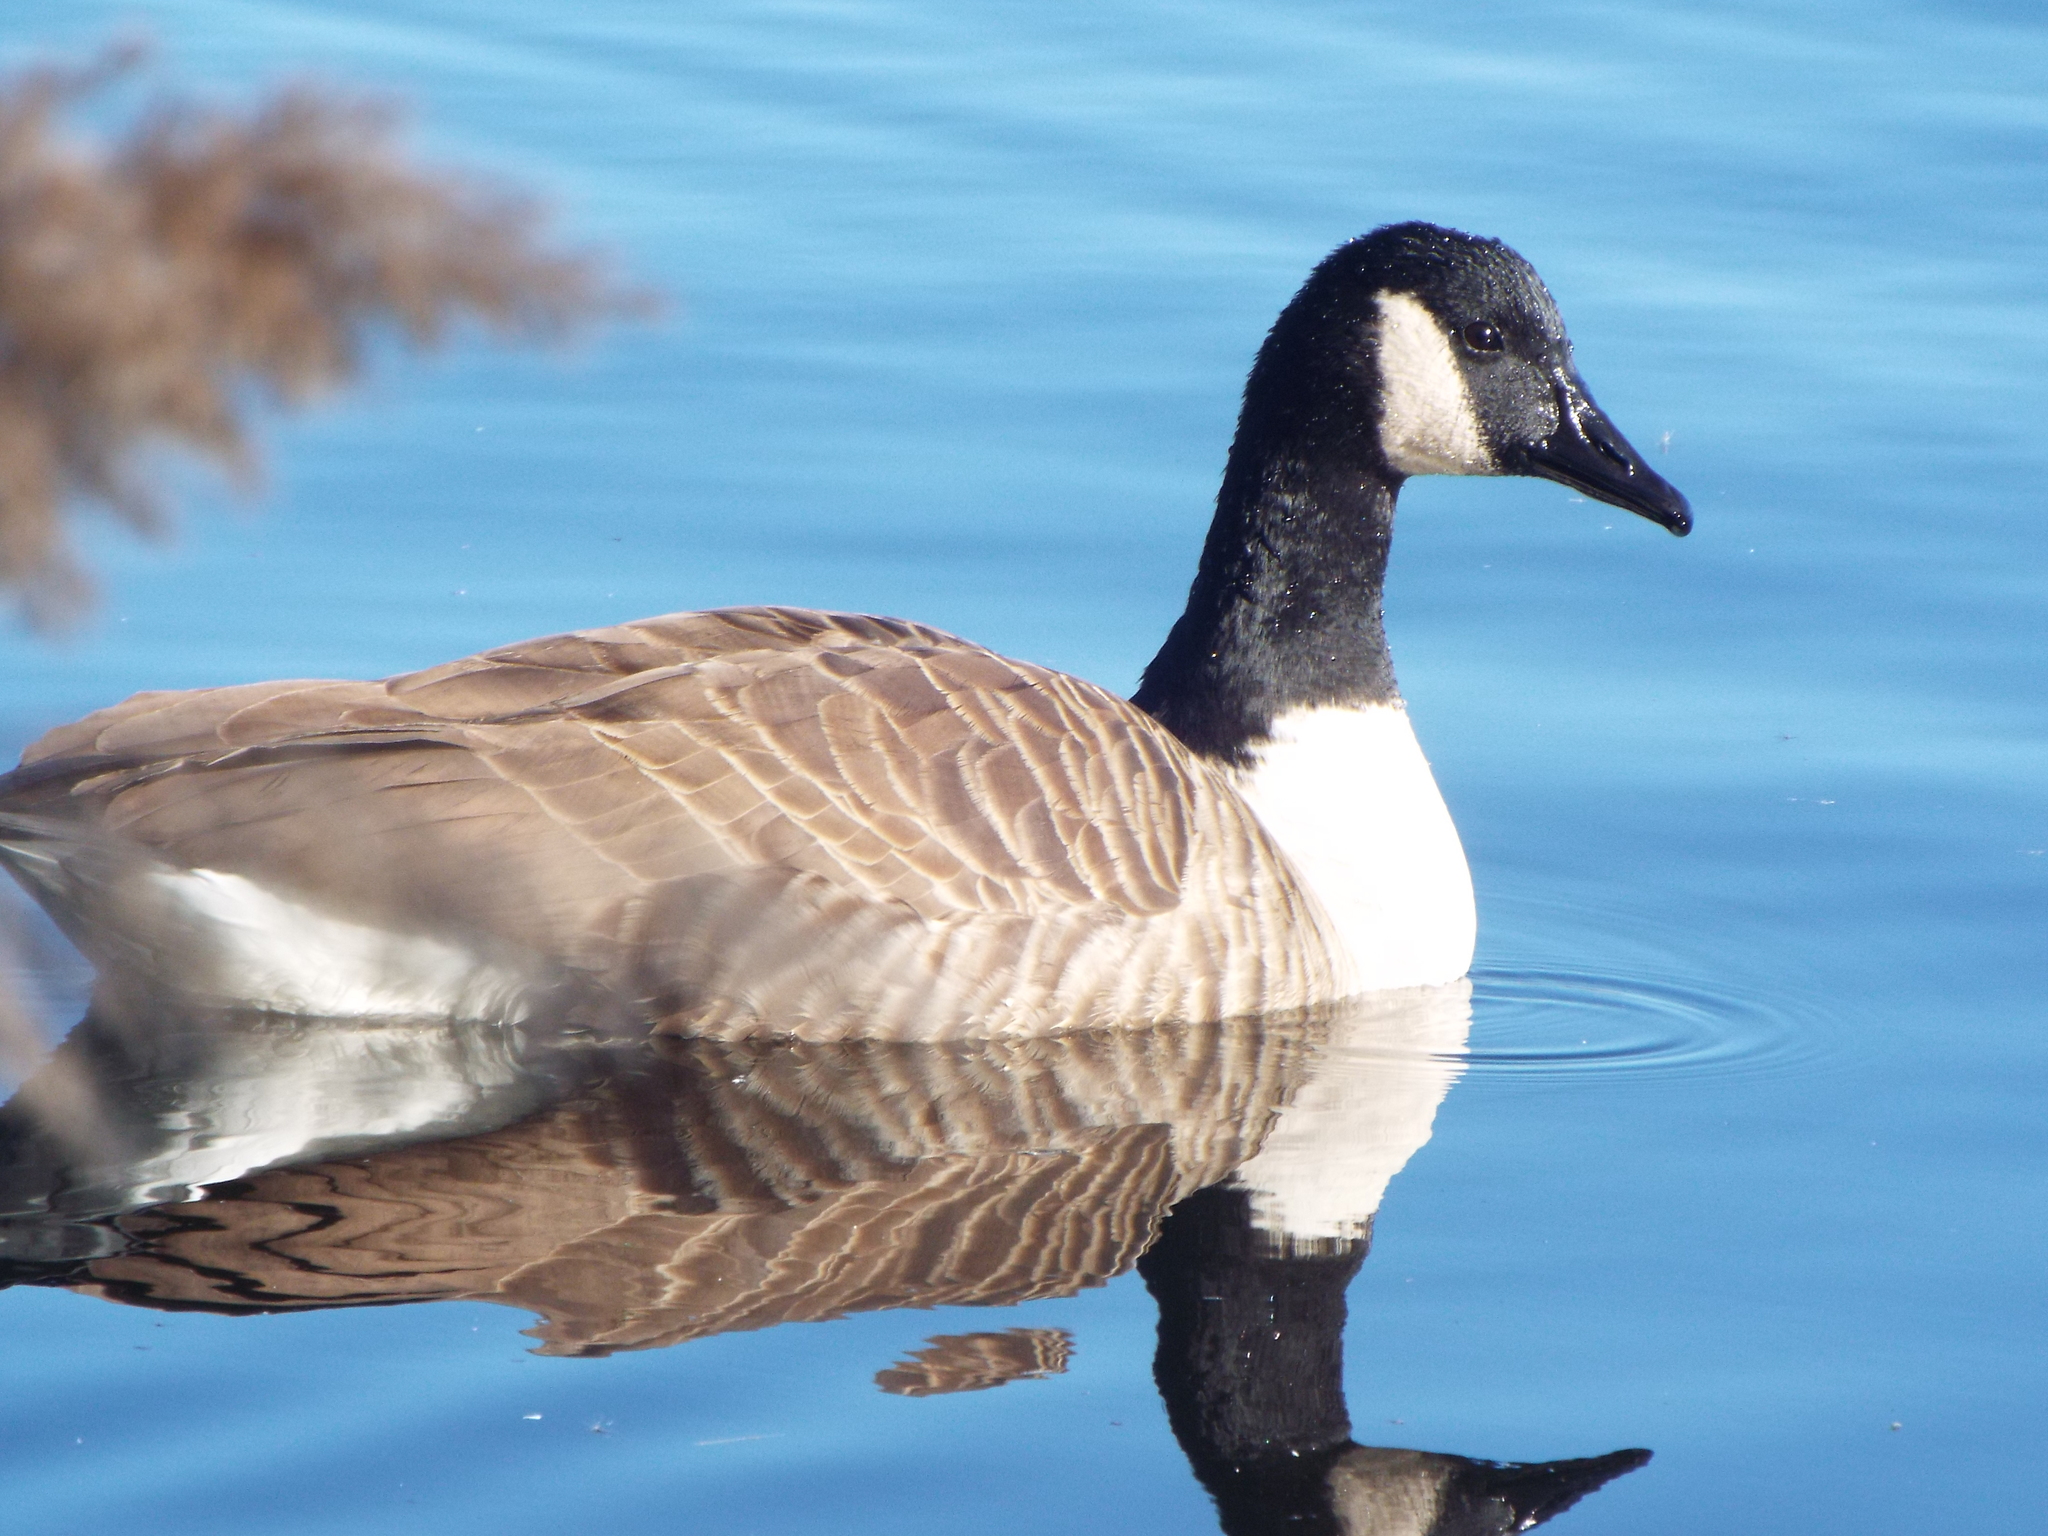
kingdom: Animalia
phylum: Chordata
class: Aves
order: Anseriformes
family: Anatidae
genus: Branta
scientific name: Branta canadensis
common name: Canada goose
